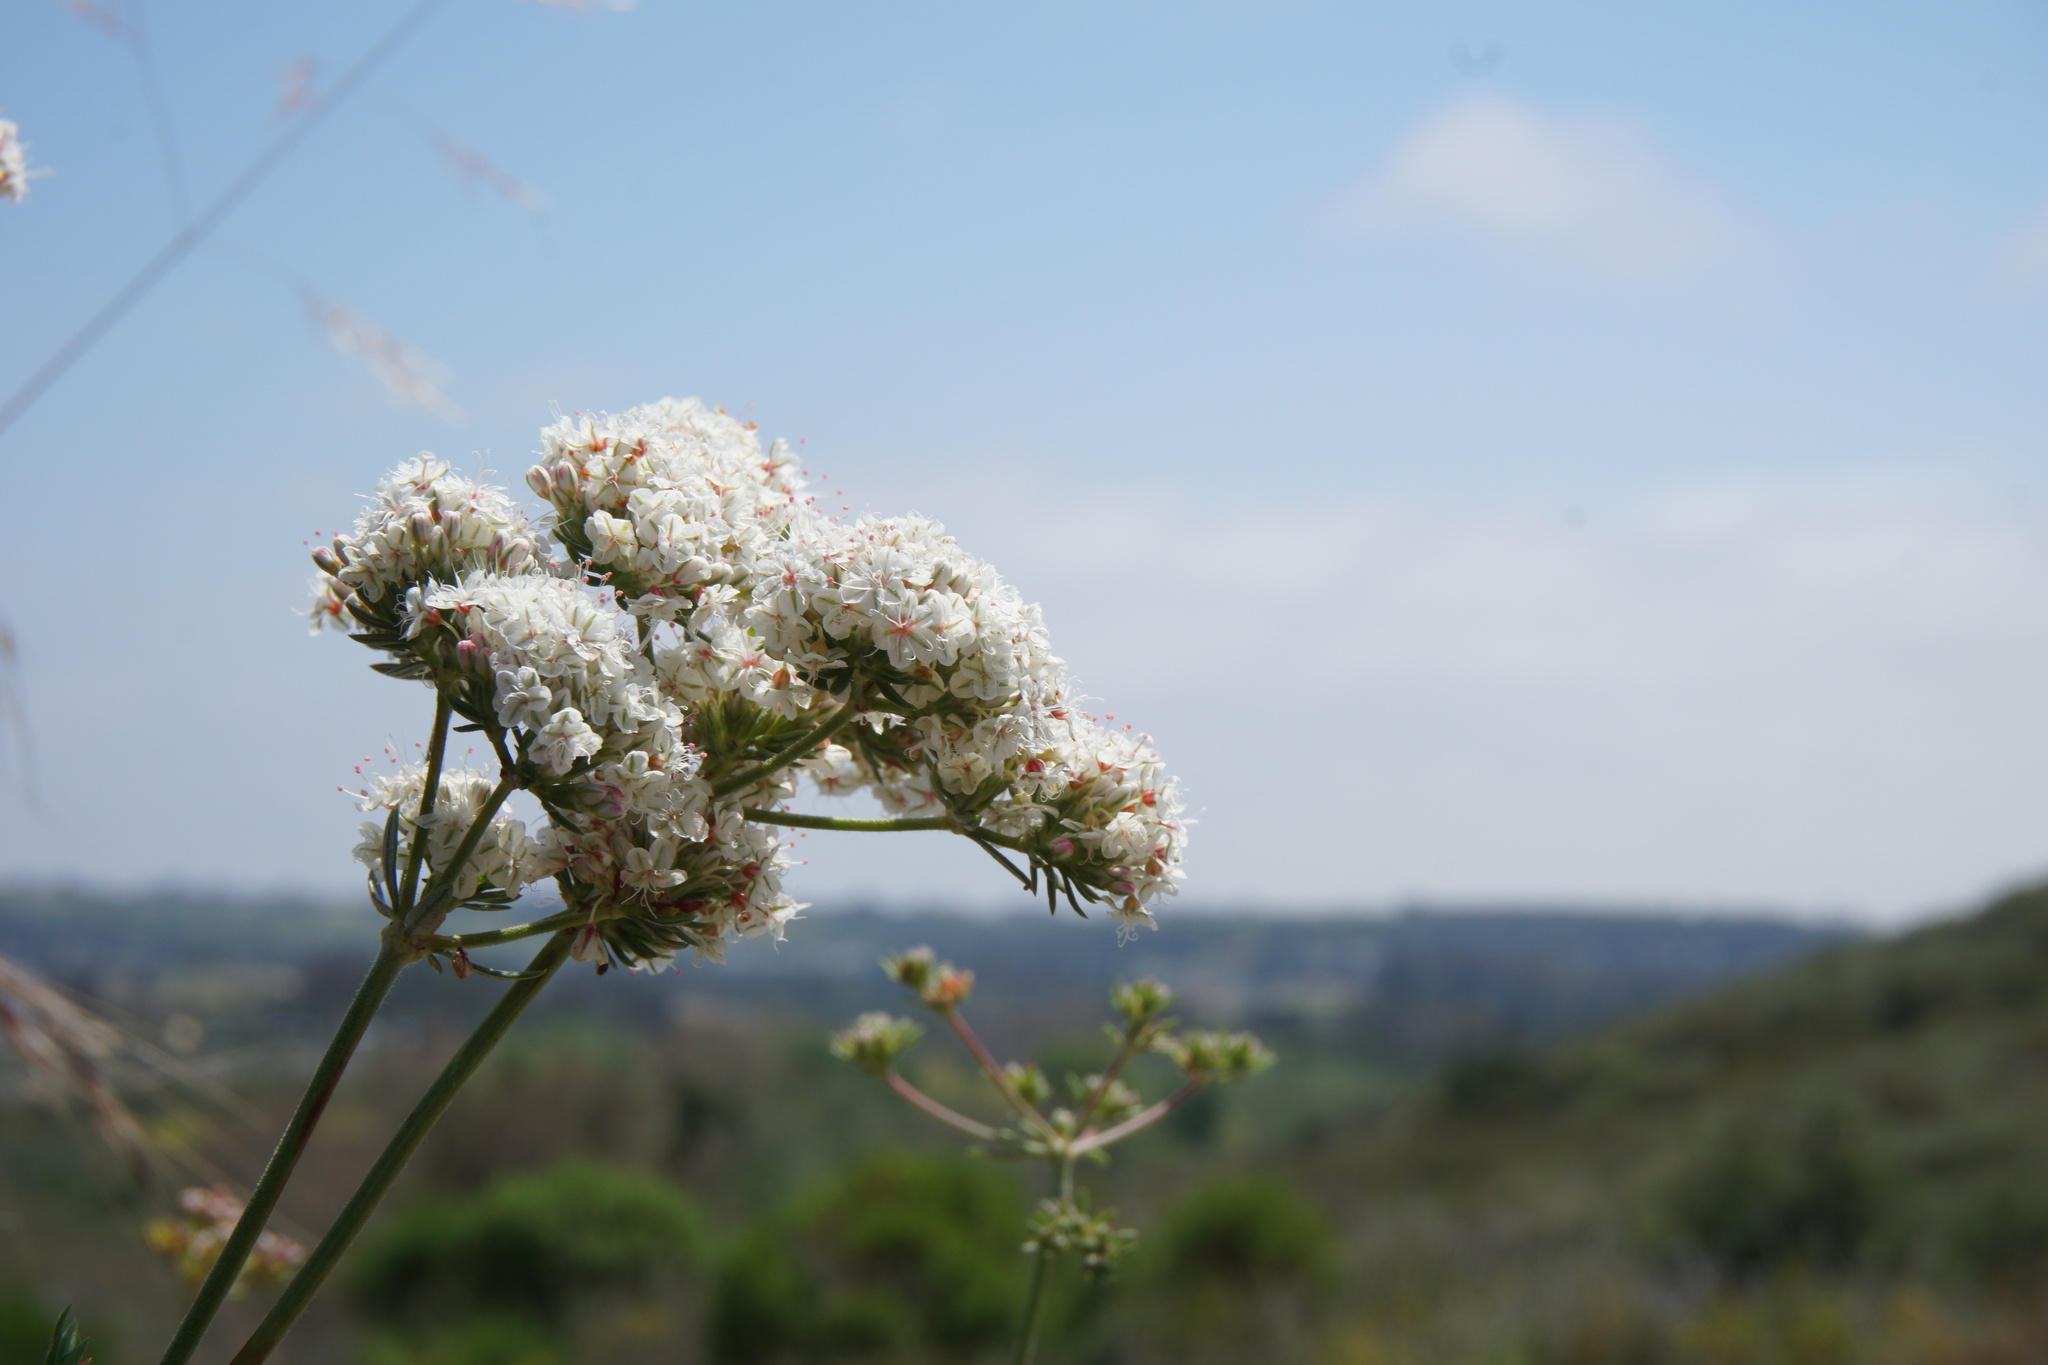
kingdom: Plantae
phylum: Tracheophyta
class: Magnoliopsida
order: Caryophyllales
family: Polygonaceae
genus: Eriogonum
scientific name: Eriogonum fasciculatum
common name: California wild buckwheat
